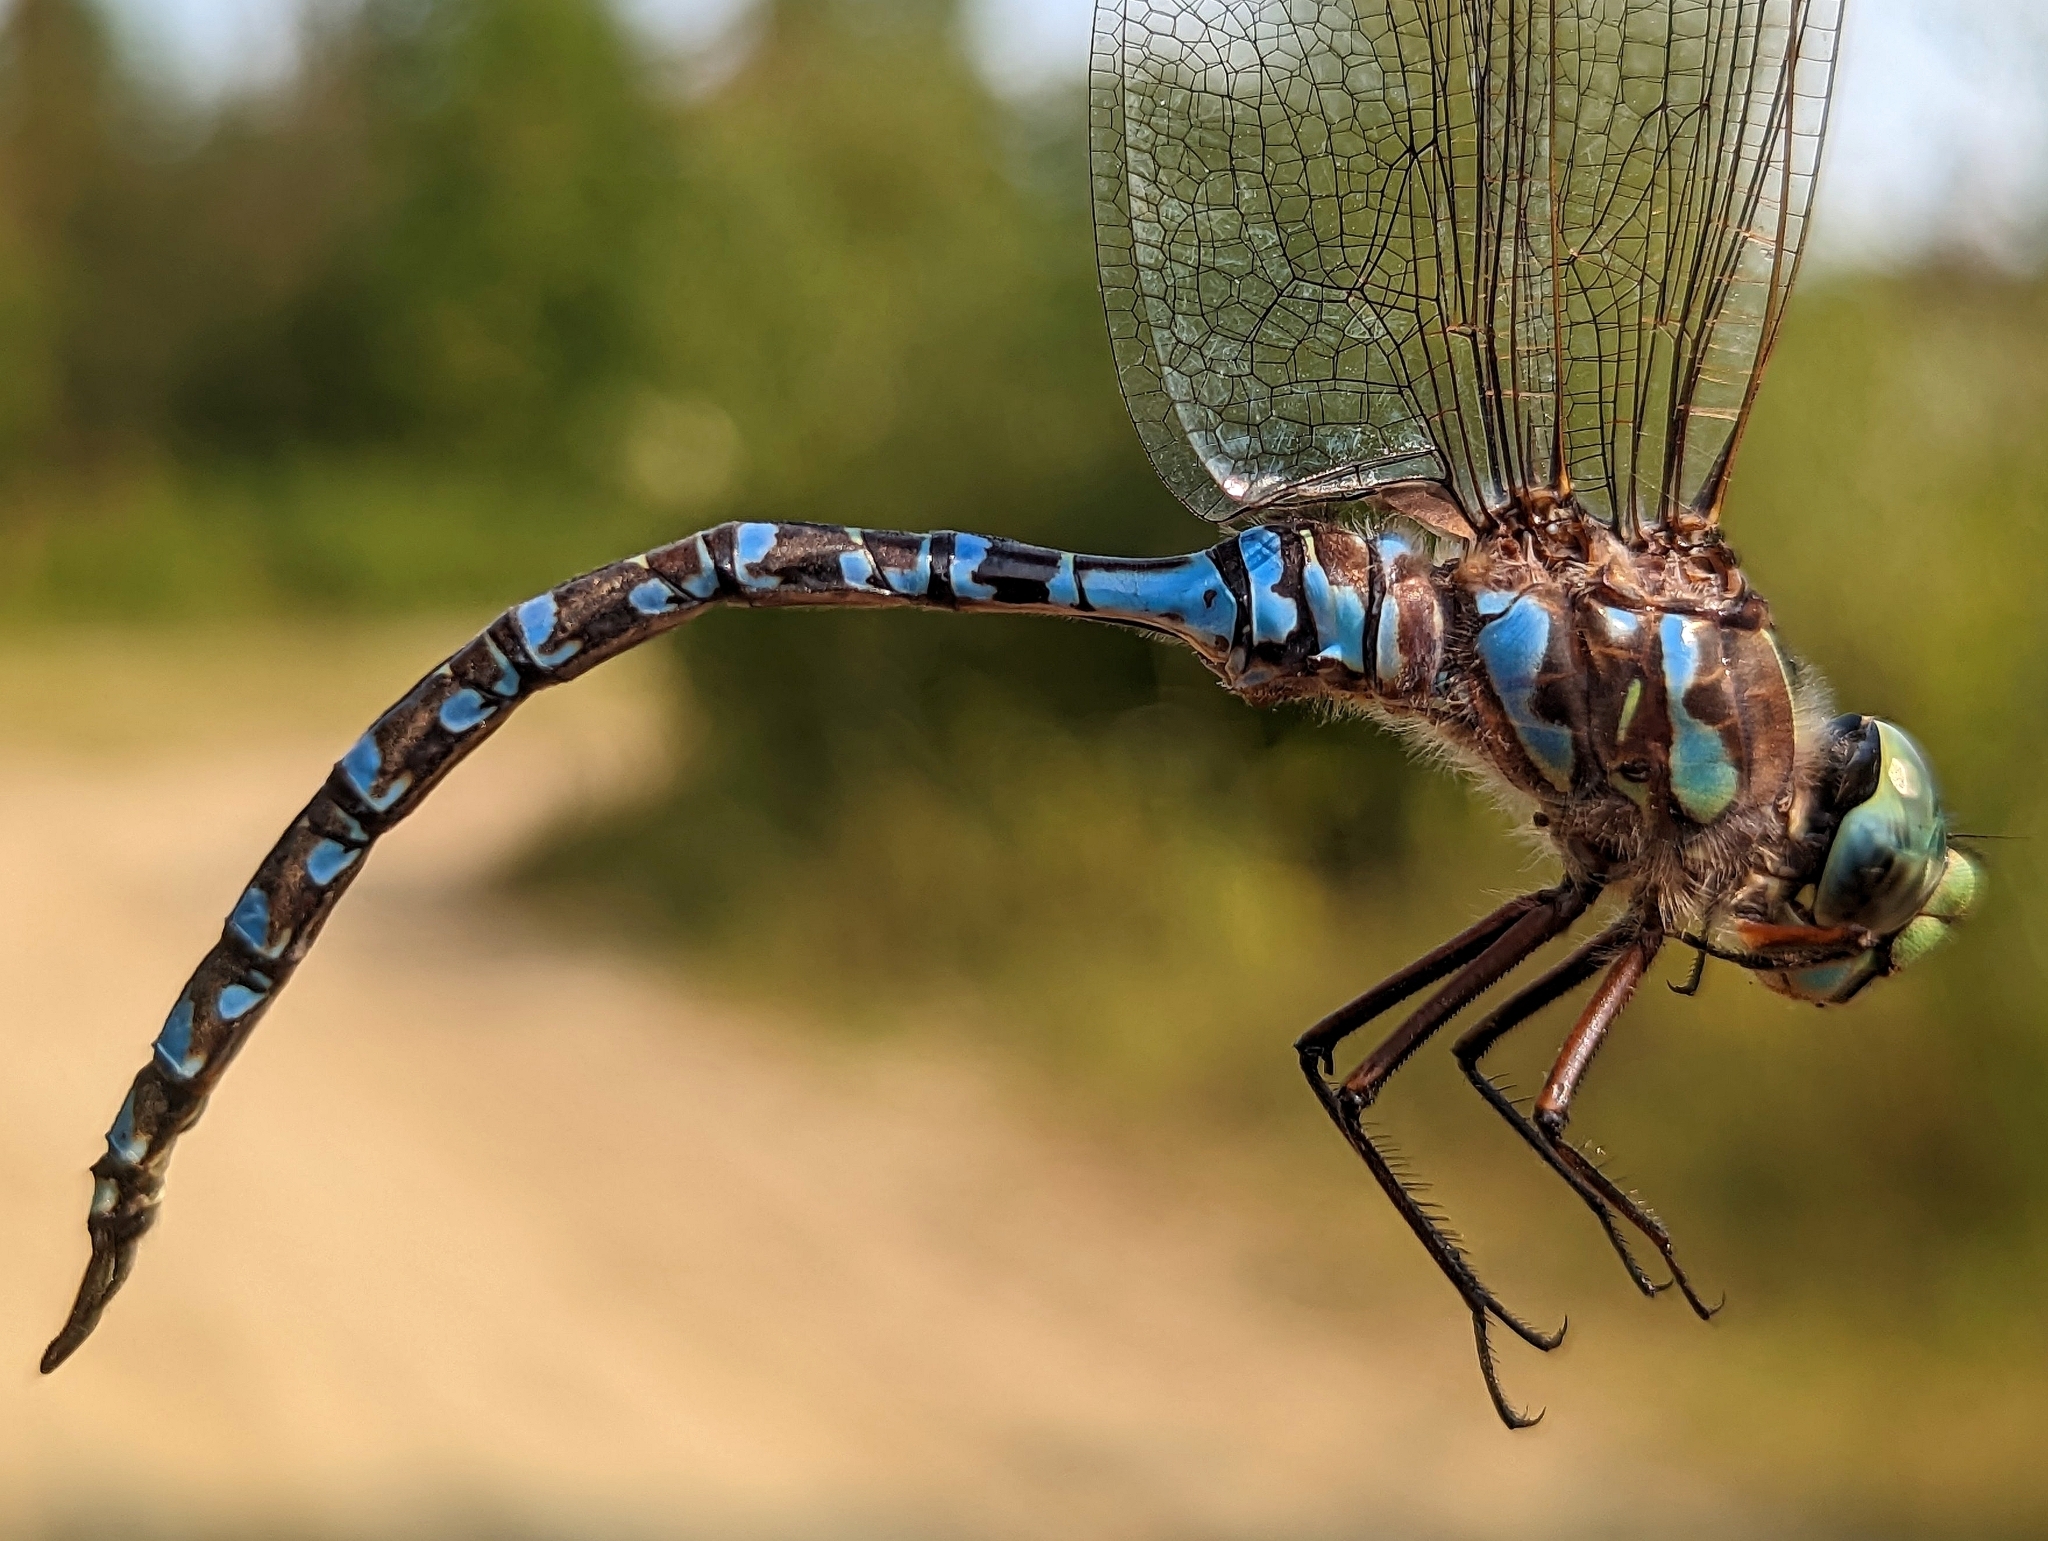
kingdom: Animalia
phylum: Arthropoda
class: Insecta
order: Odonata
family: Aeshnidae
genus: Aeshna
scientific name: Aeshna eremita
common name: Lake darner
